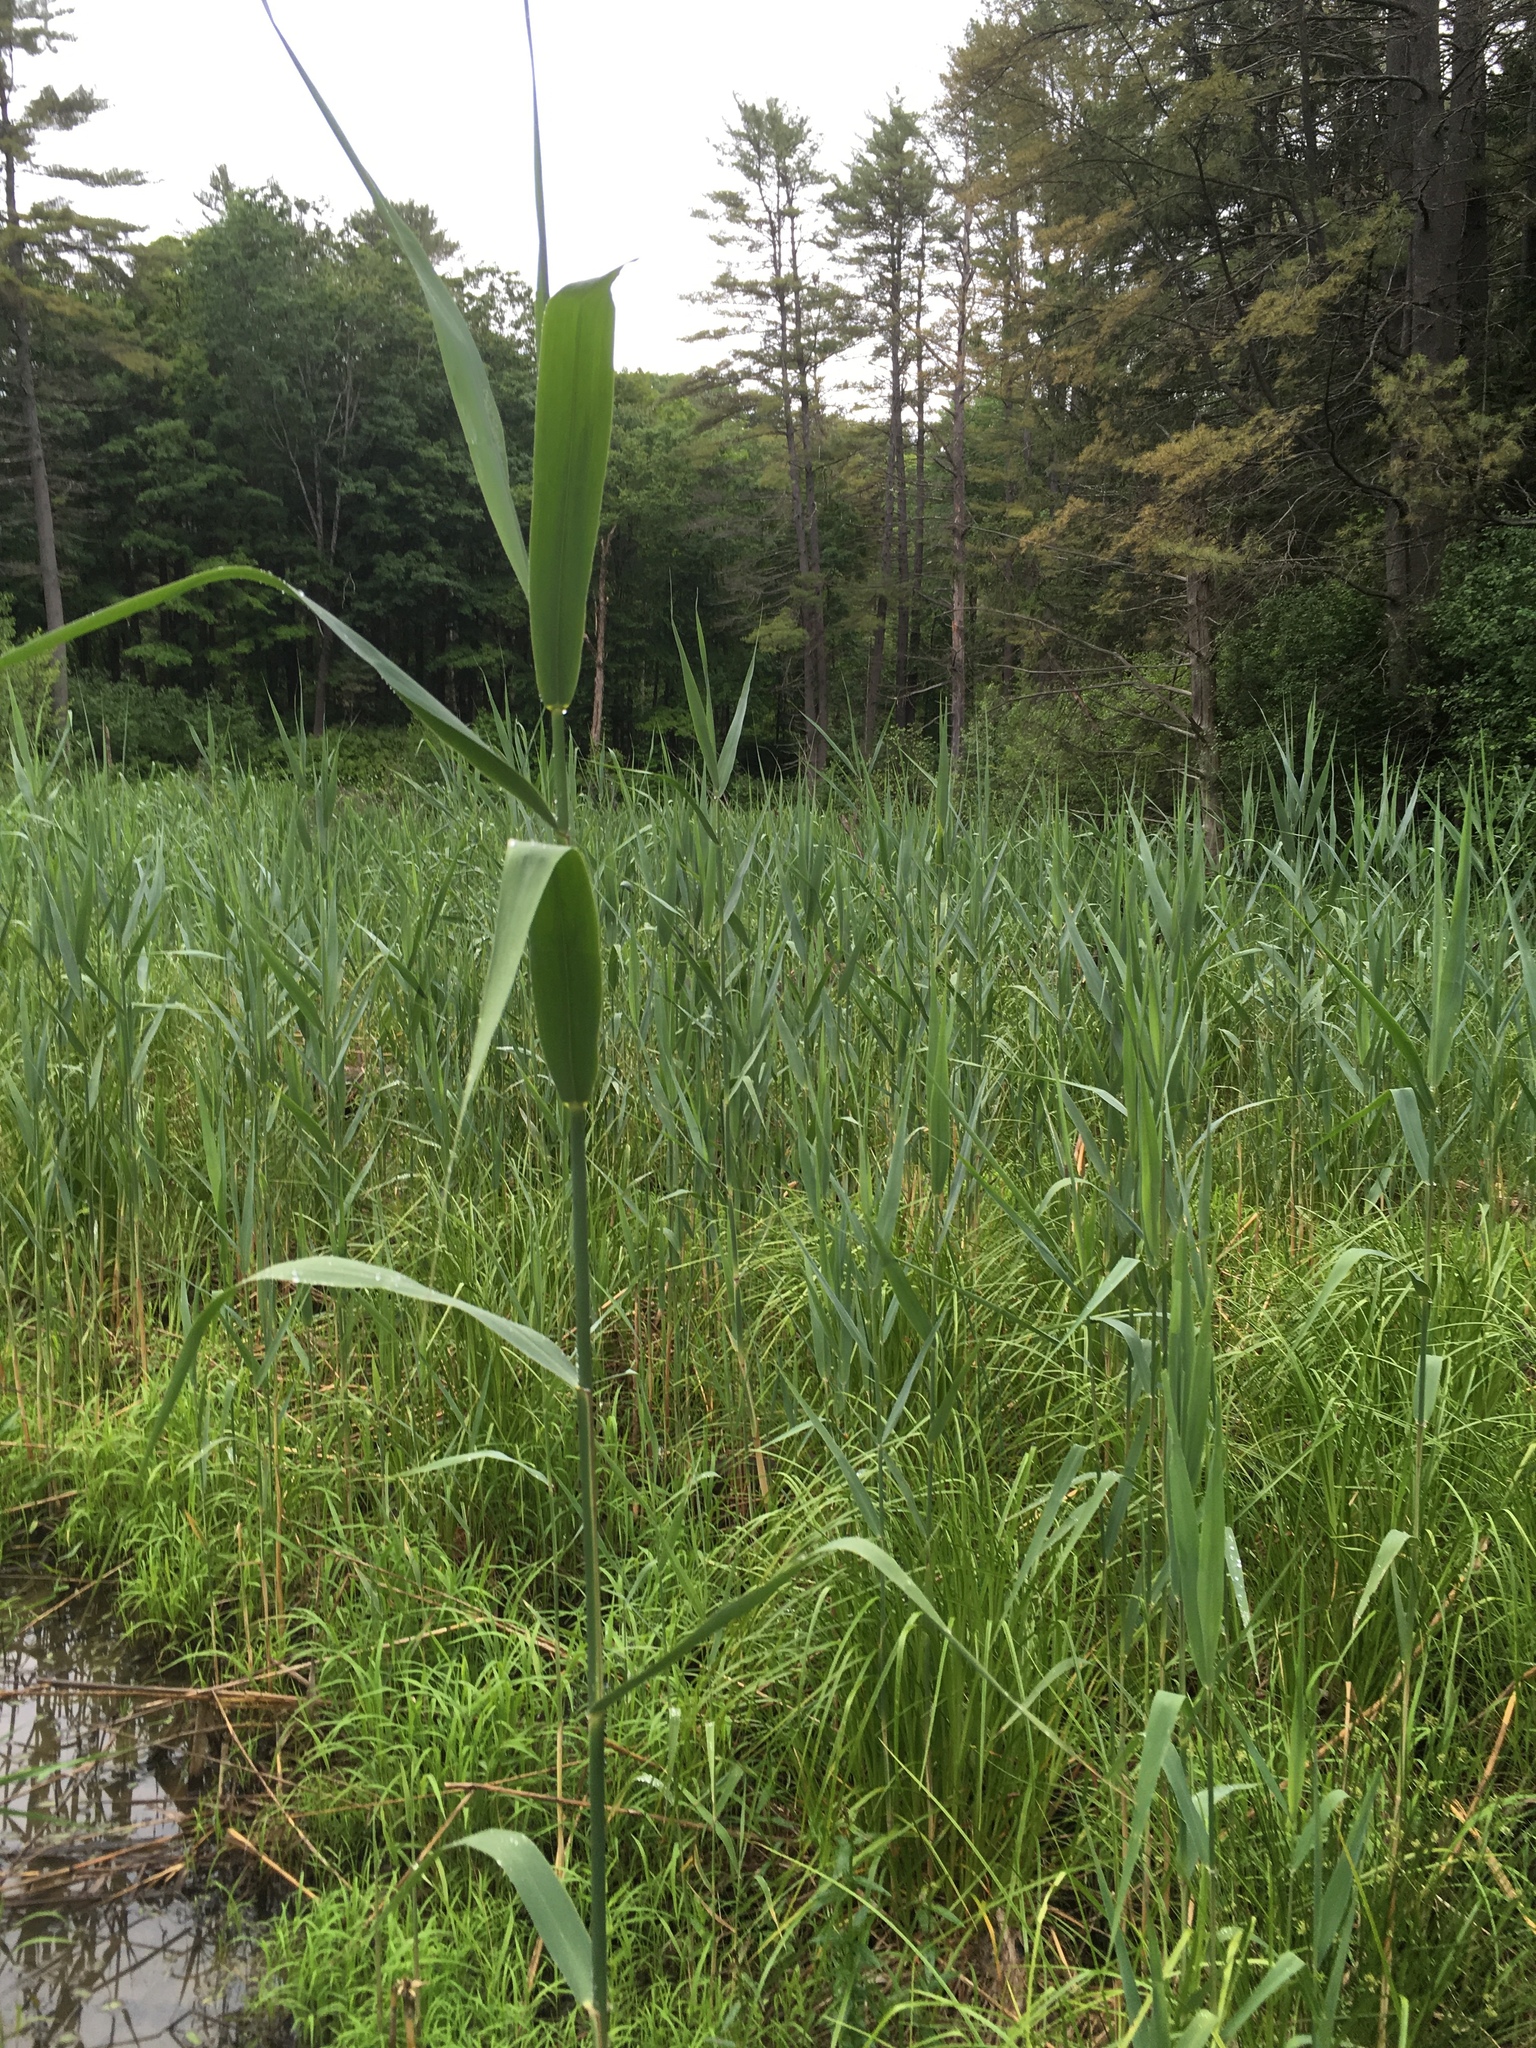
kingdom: Plantae
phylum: Tracheophyta
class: Liliopsida
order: Poales
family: Poaceae
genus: Phragmites
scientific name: Phragmites australis
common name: Common reed
